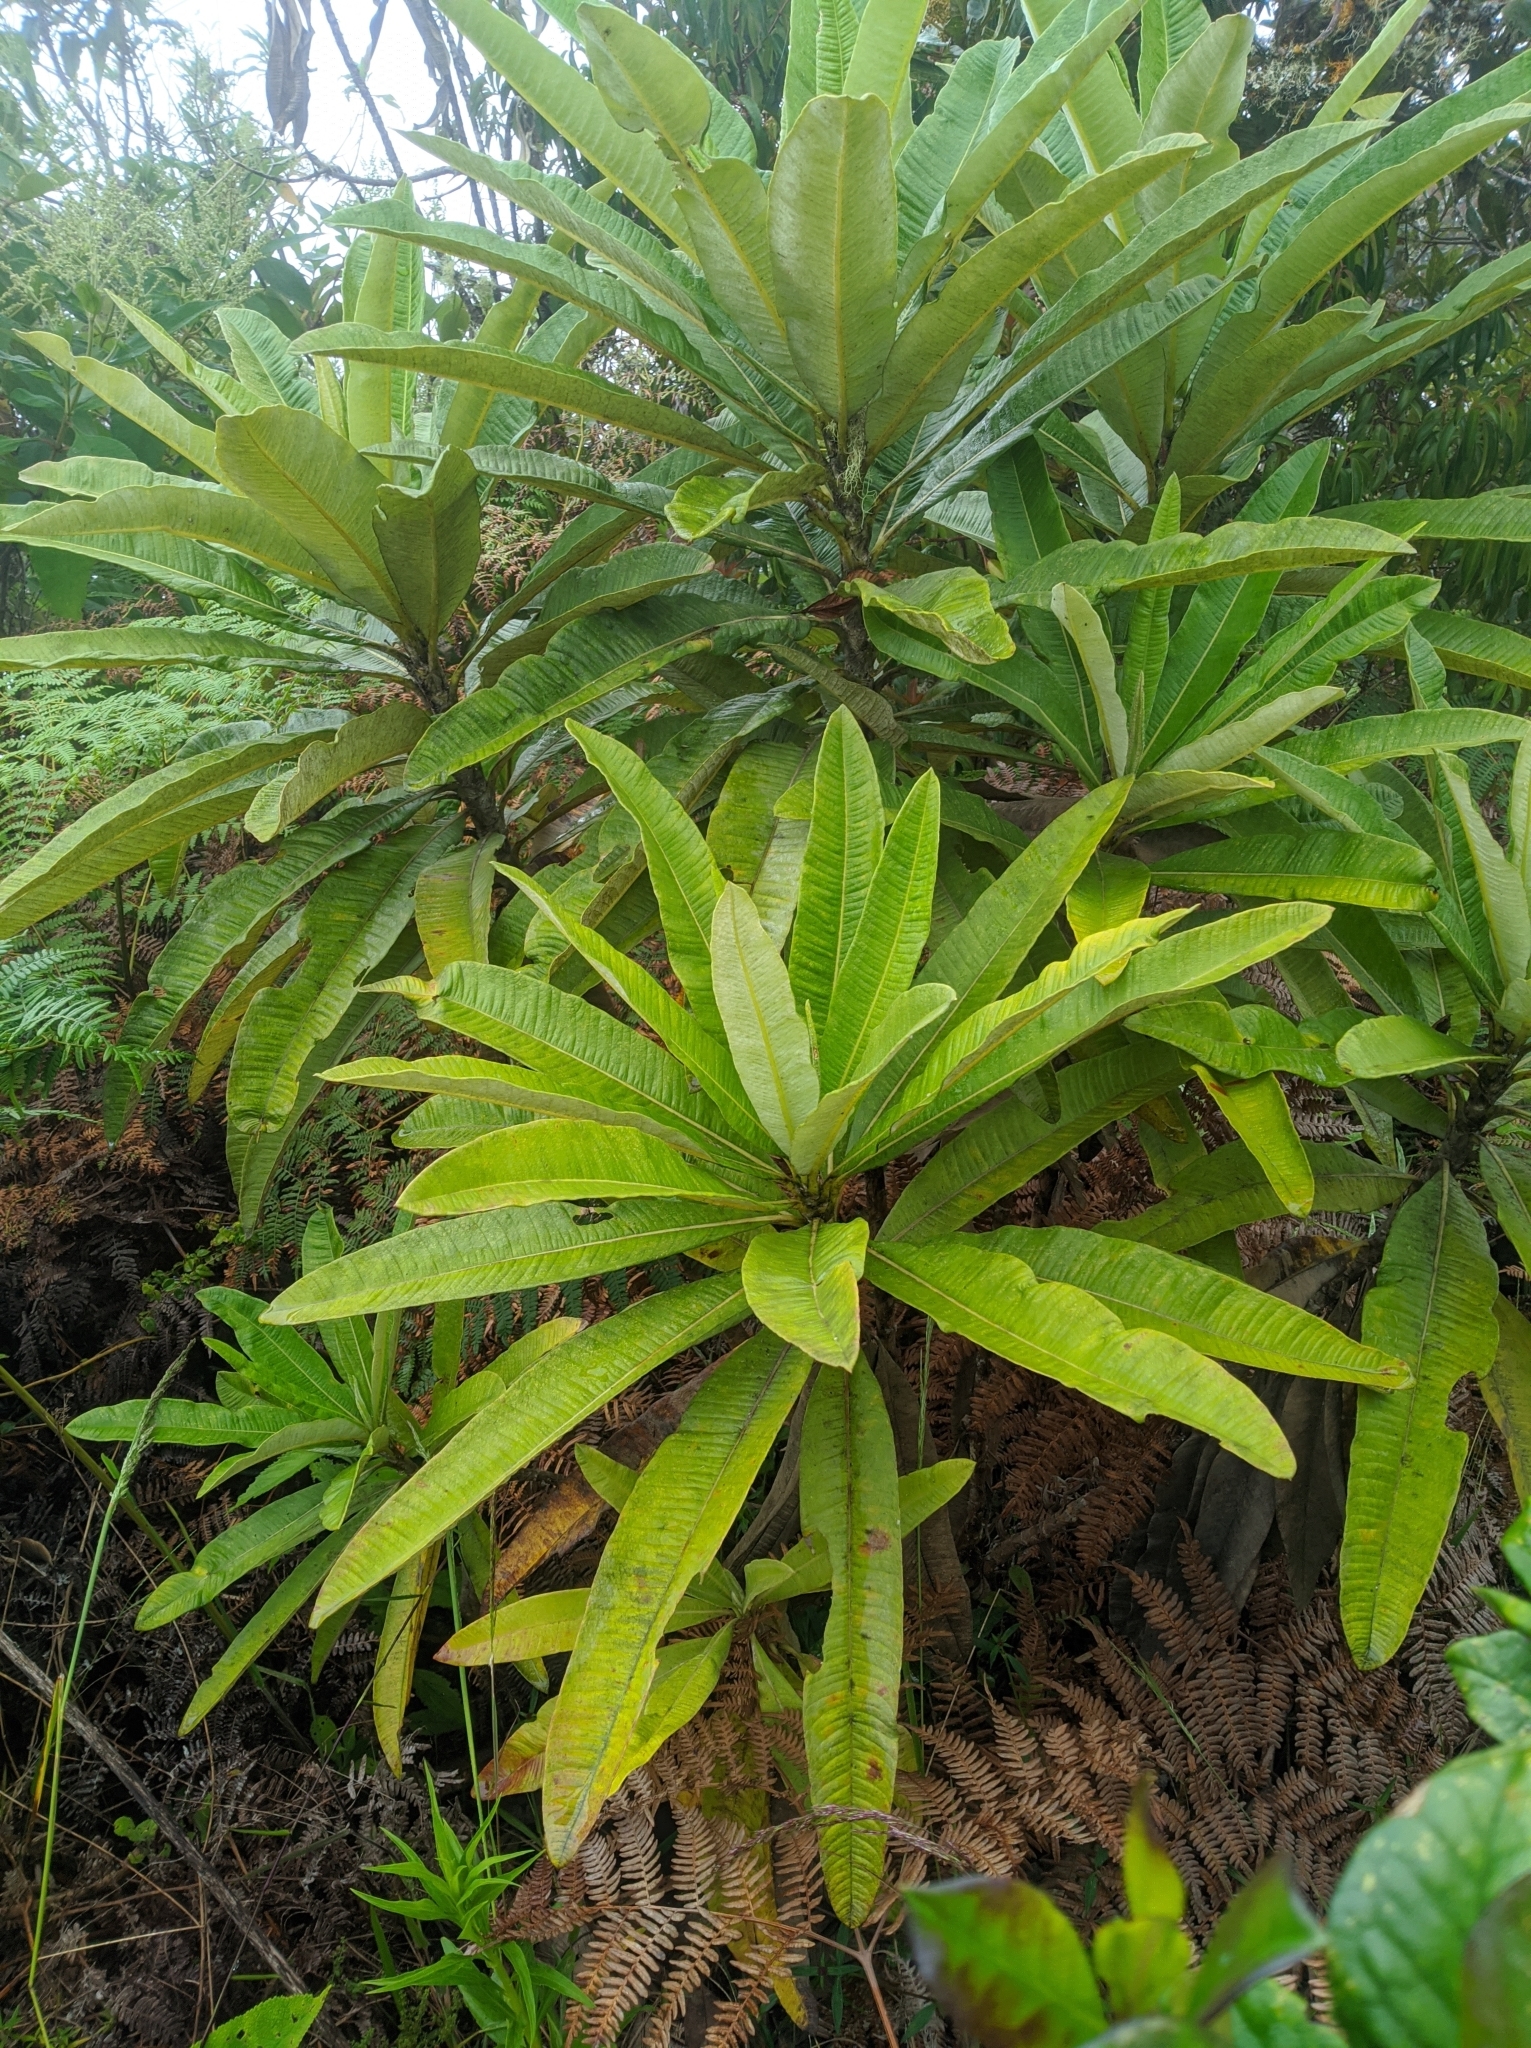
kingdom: Plantae
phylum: Tracheophyta
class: Magnoliopsida
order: Asterales
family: Asteraceae
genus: Espeletia
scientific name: Espeletia neriifolia
